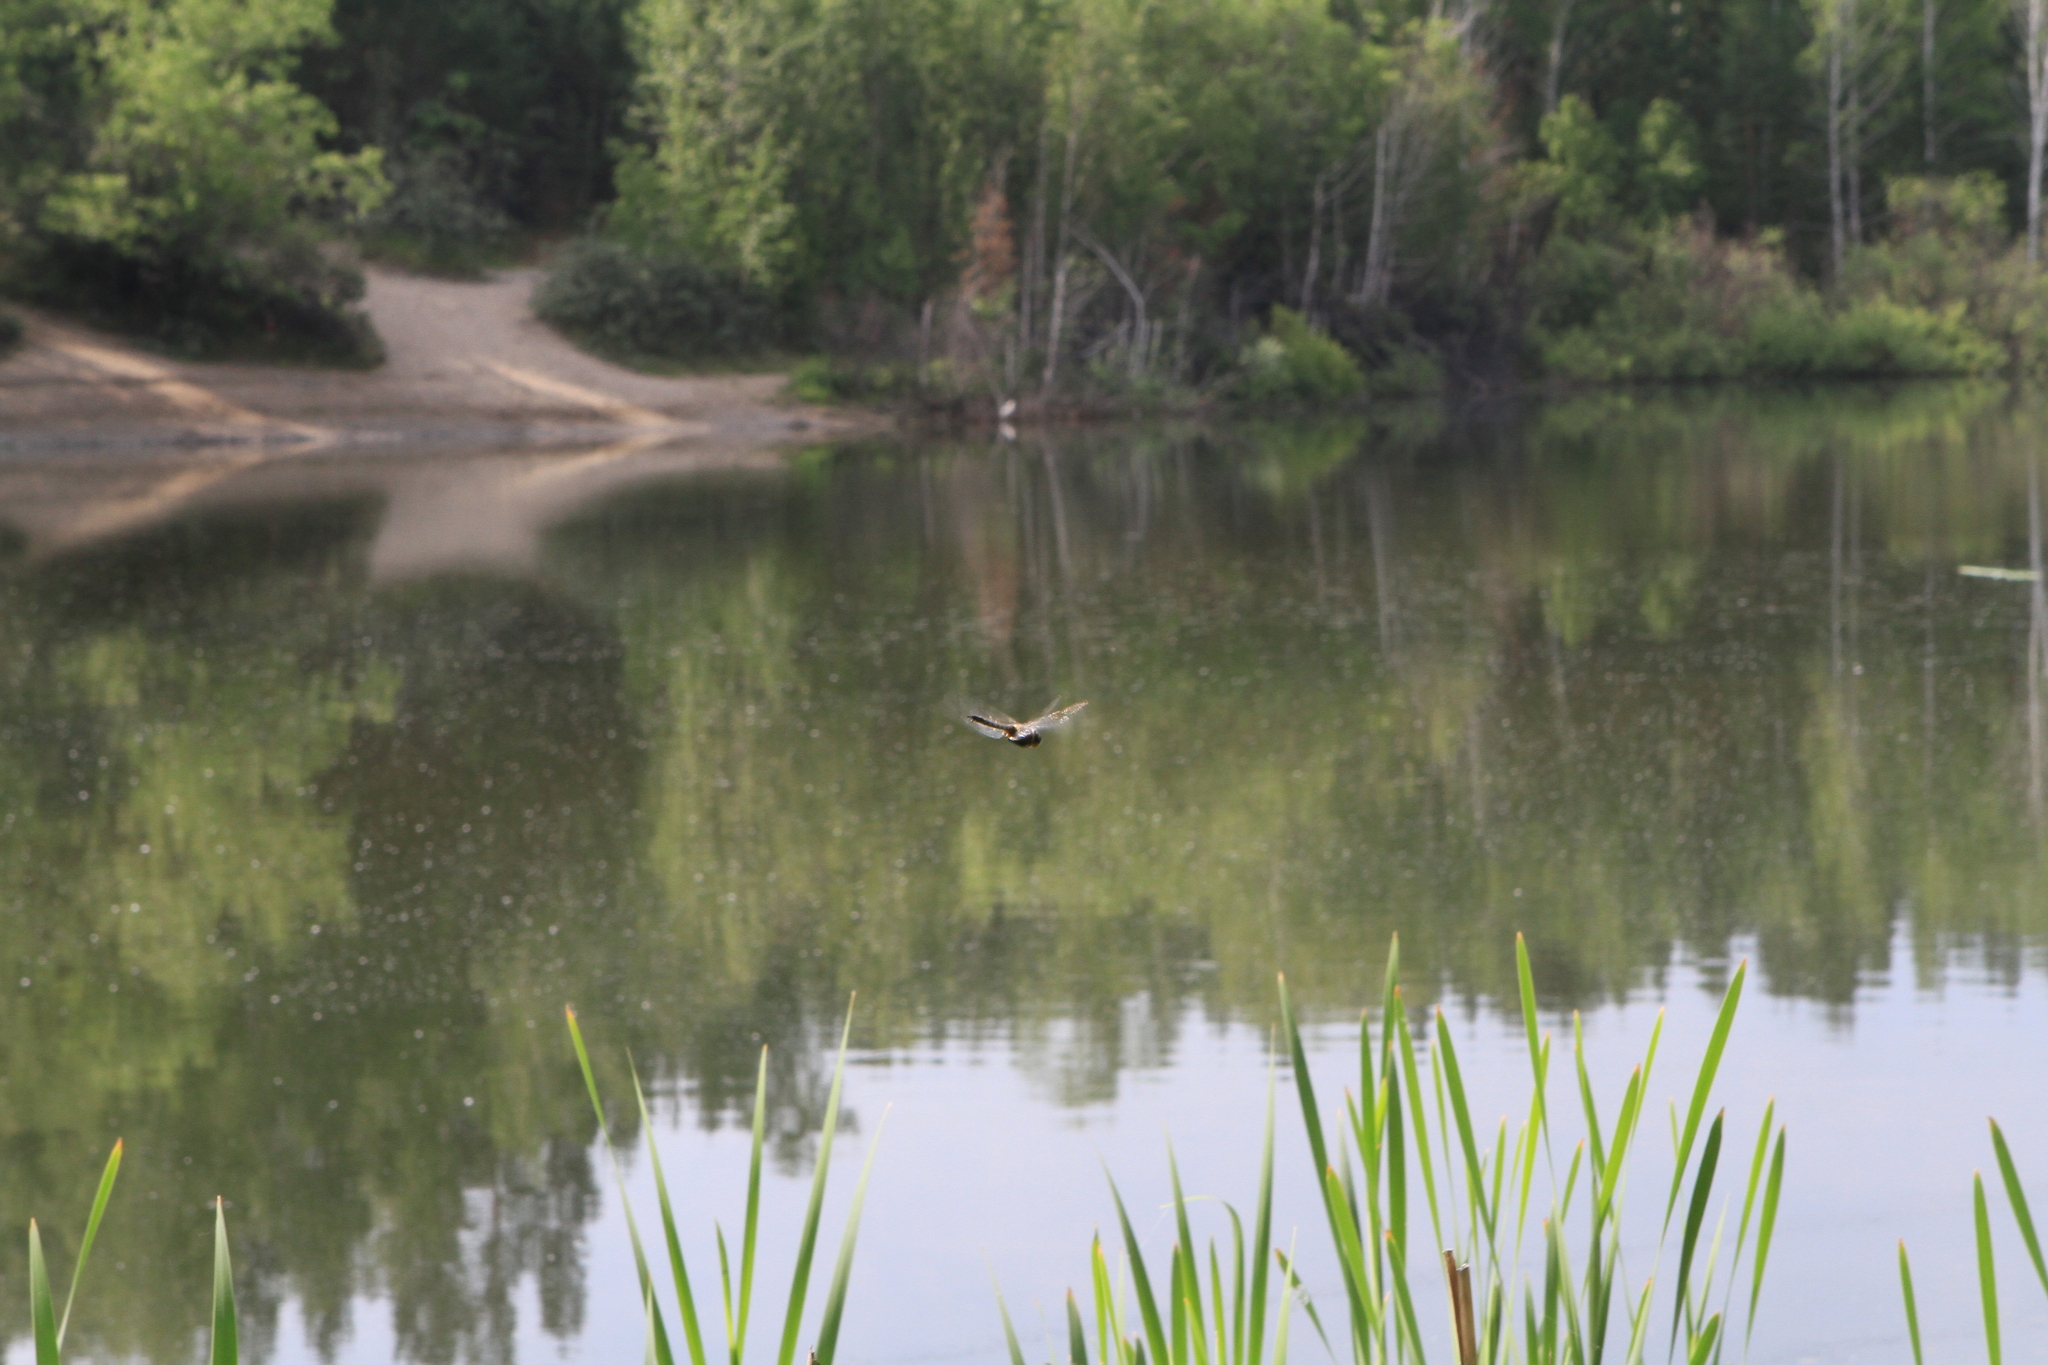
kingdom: Animalia
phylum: Arthropoda
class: Insecta
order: Odonata
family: Corduliidae
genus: Epitheca
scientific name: Epitheca bimaculata
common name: Eurasian baskettail
